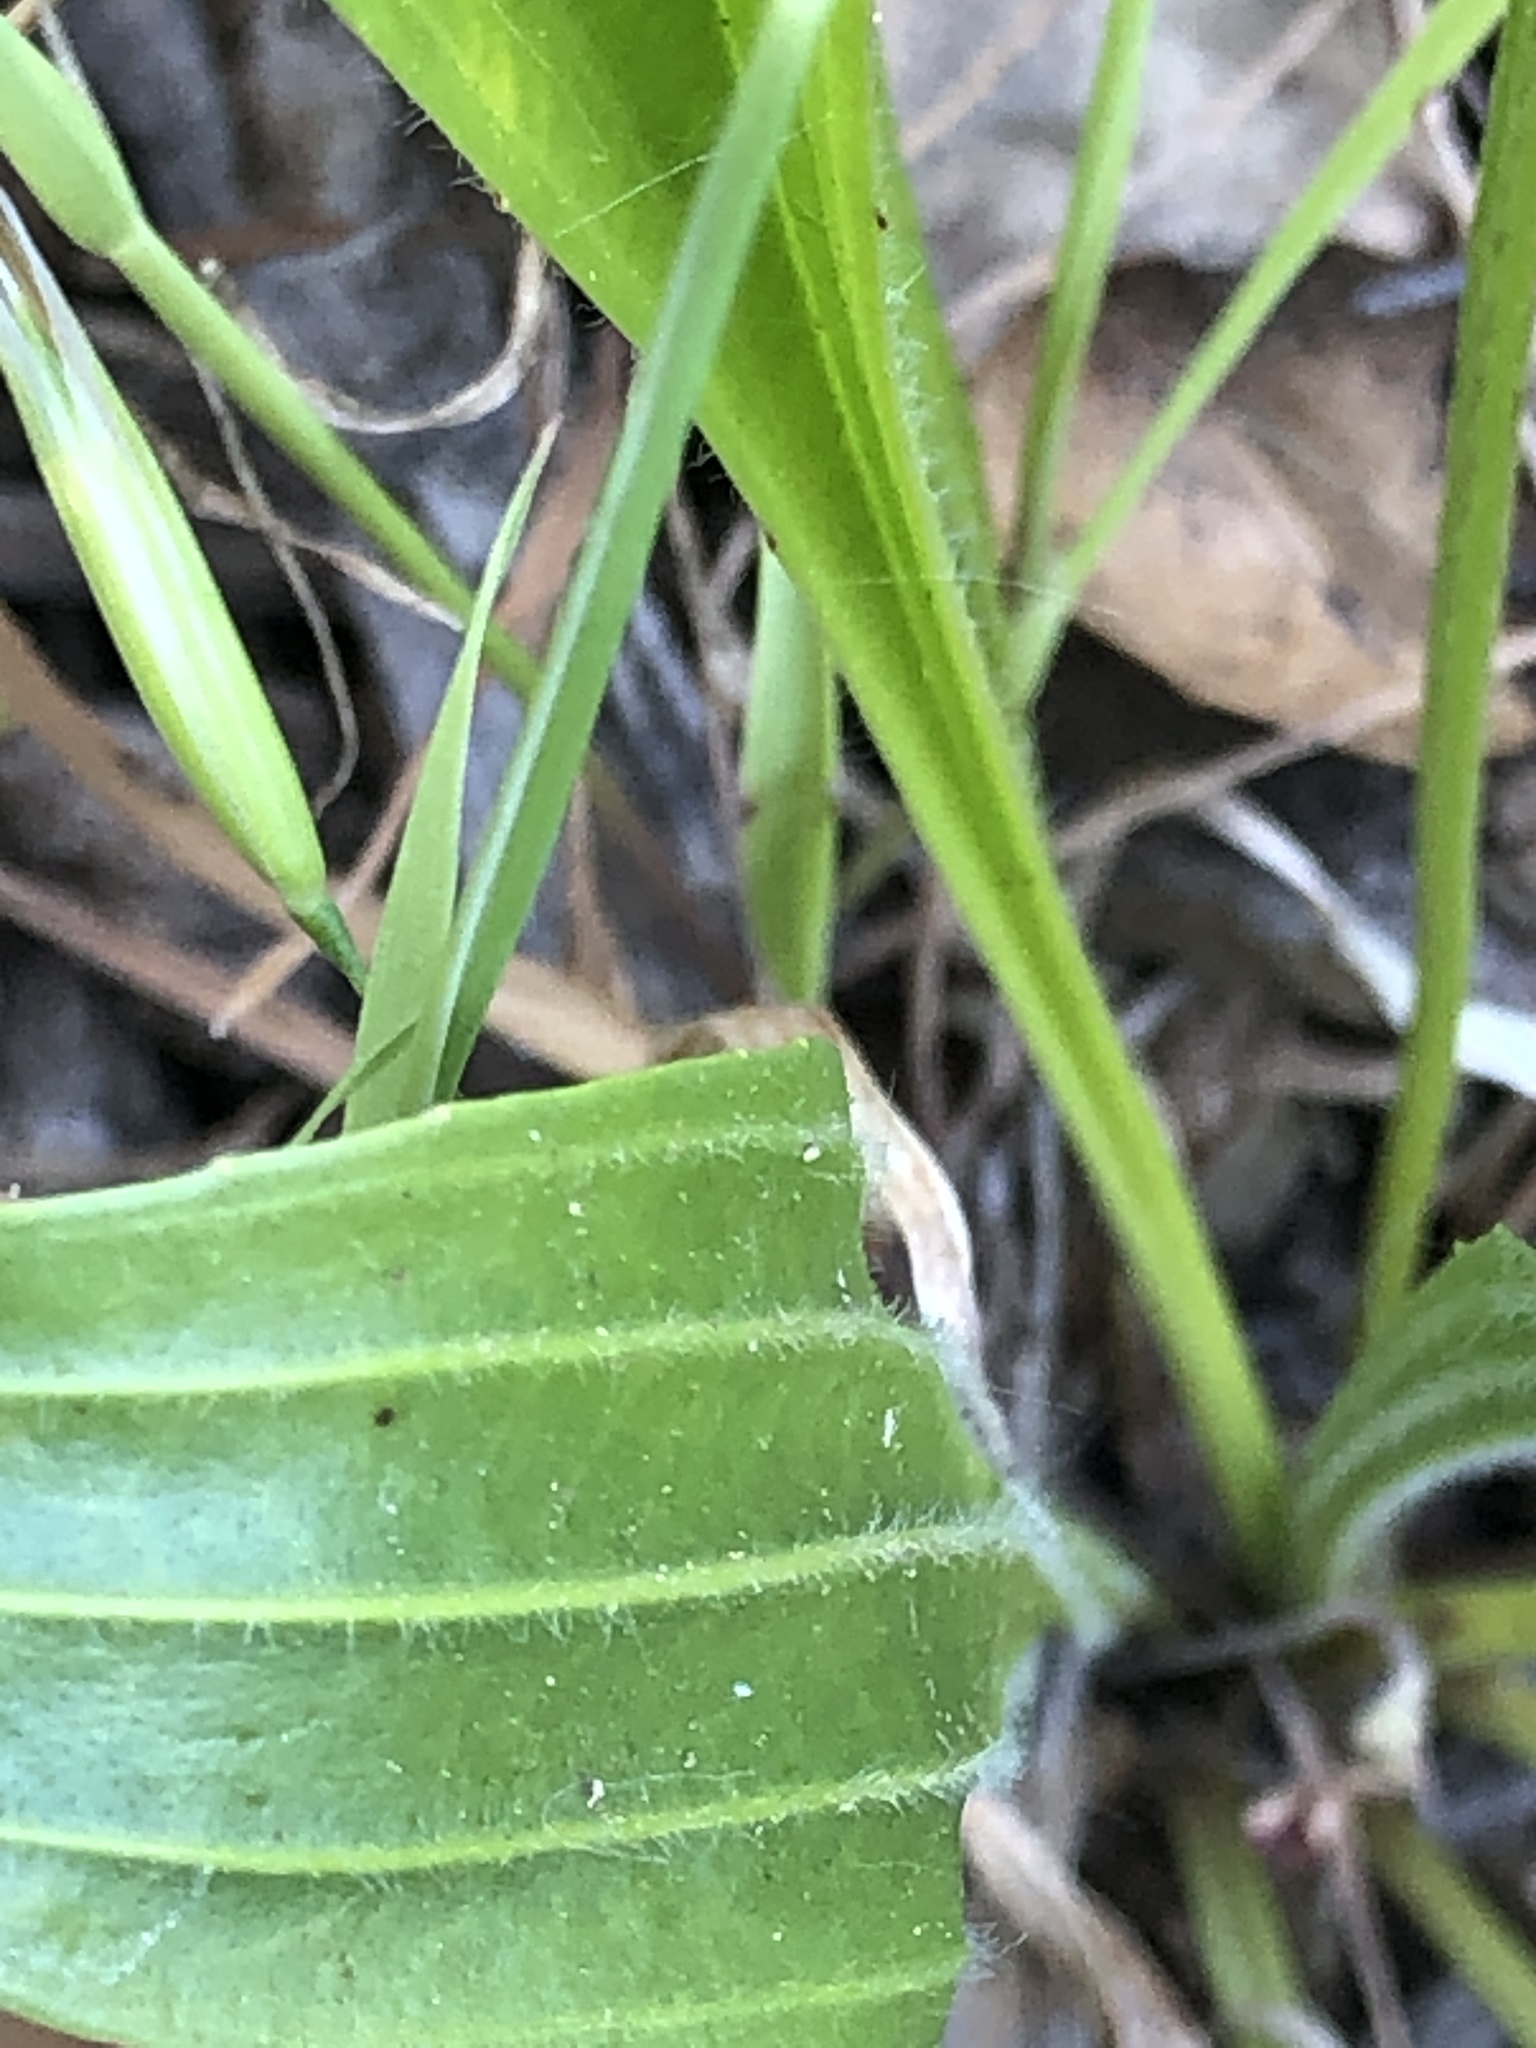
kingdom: Plantae
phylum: Tracheophyta
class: Magnoliopsida
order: Lamiales
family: Plantaginaceae
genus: Plantago
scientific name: Plantago lanceolata
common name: Ribwort plantain
